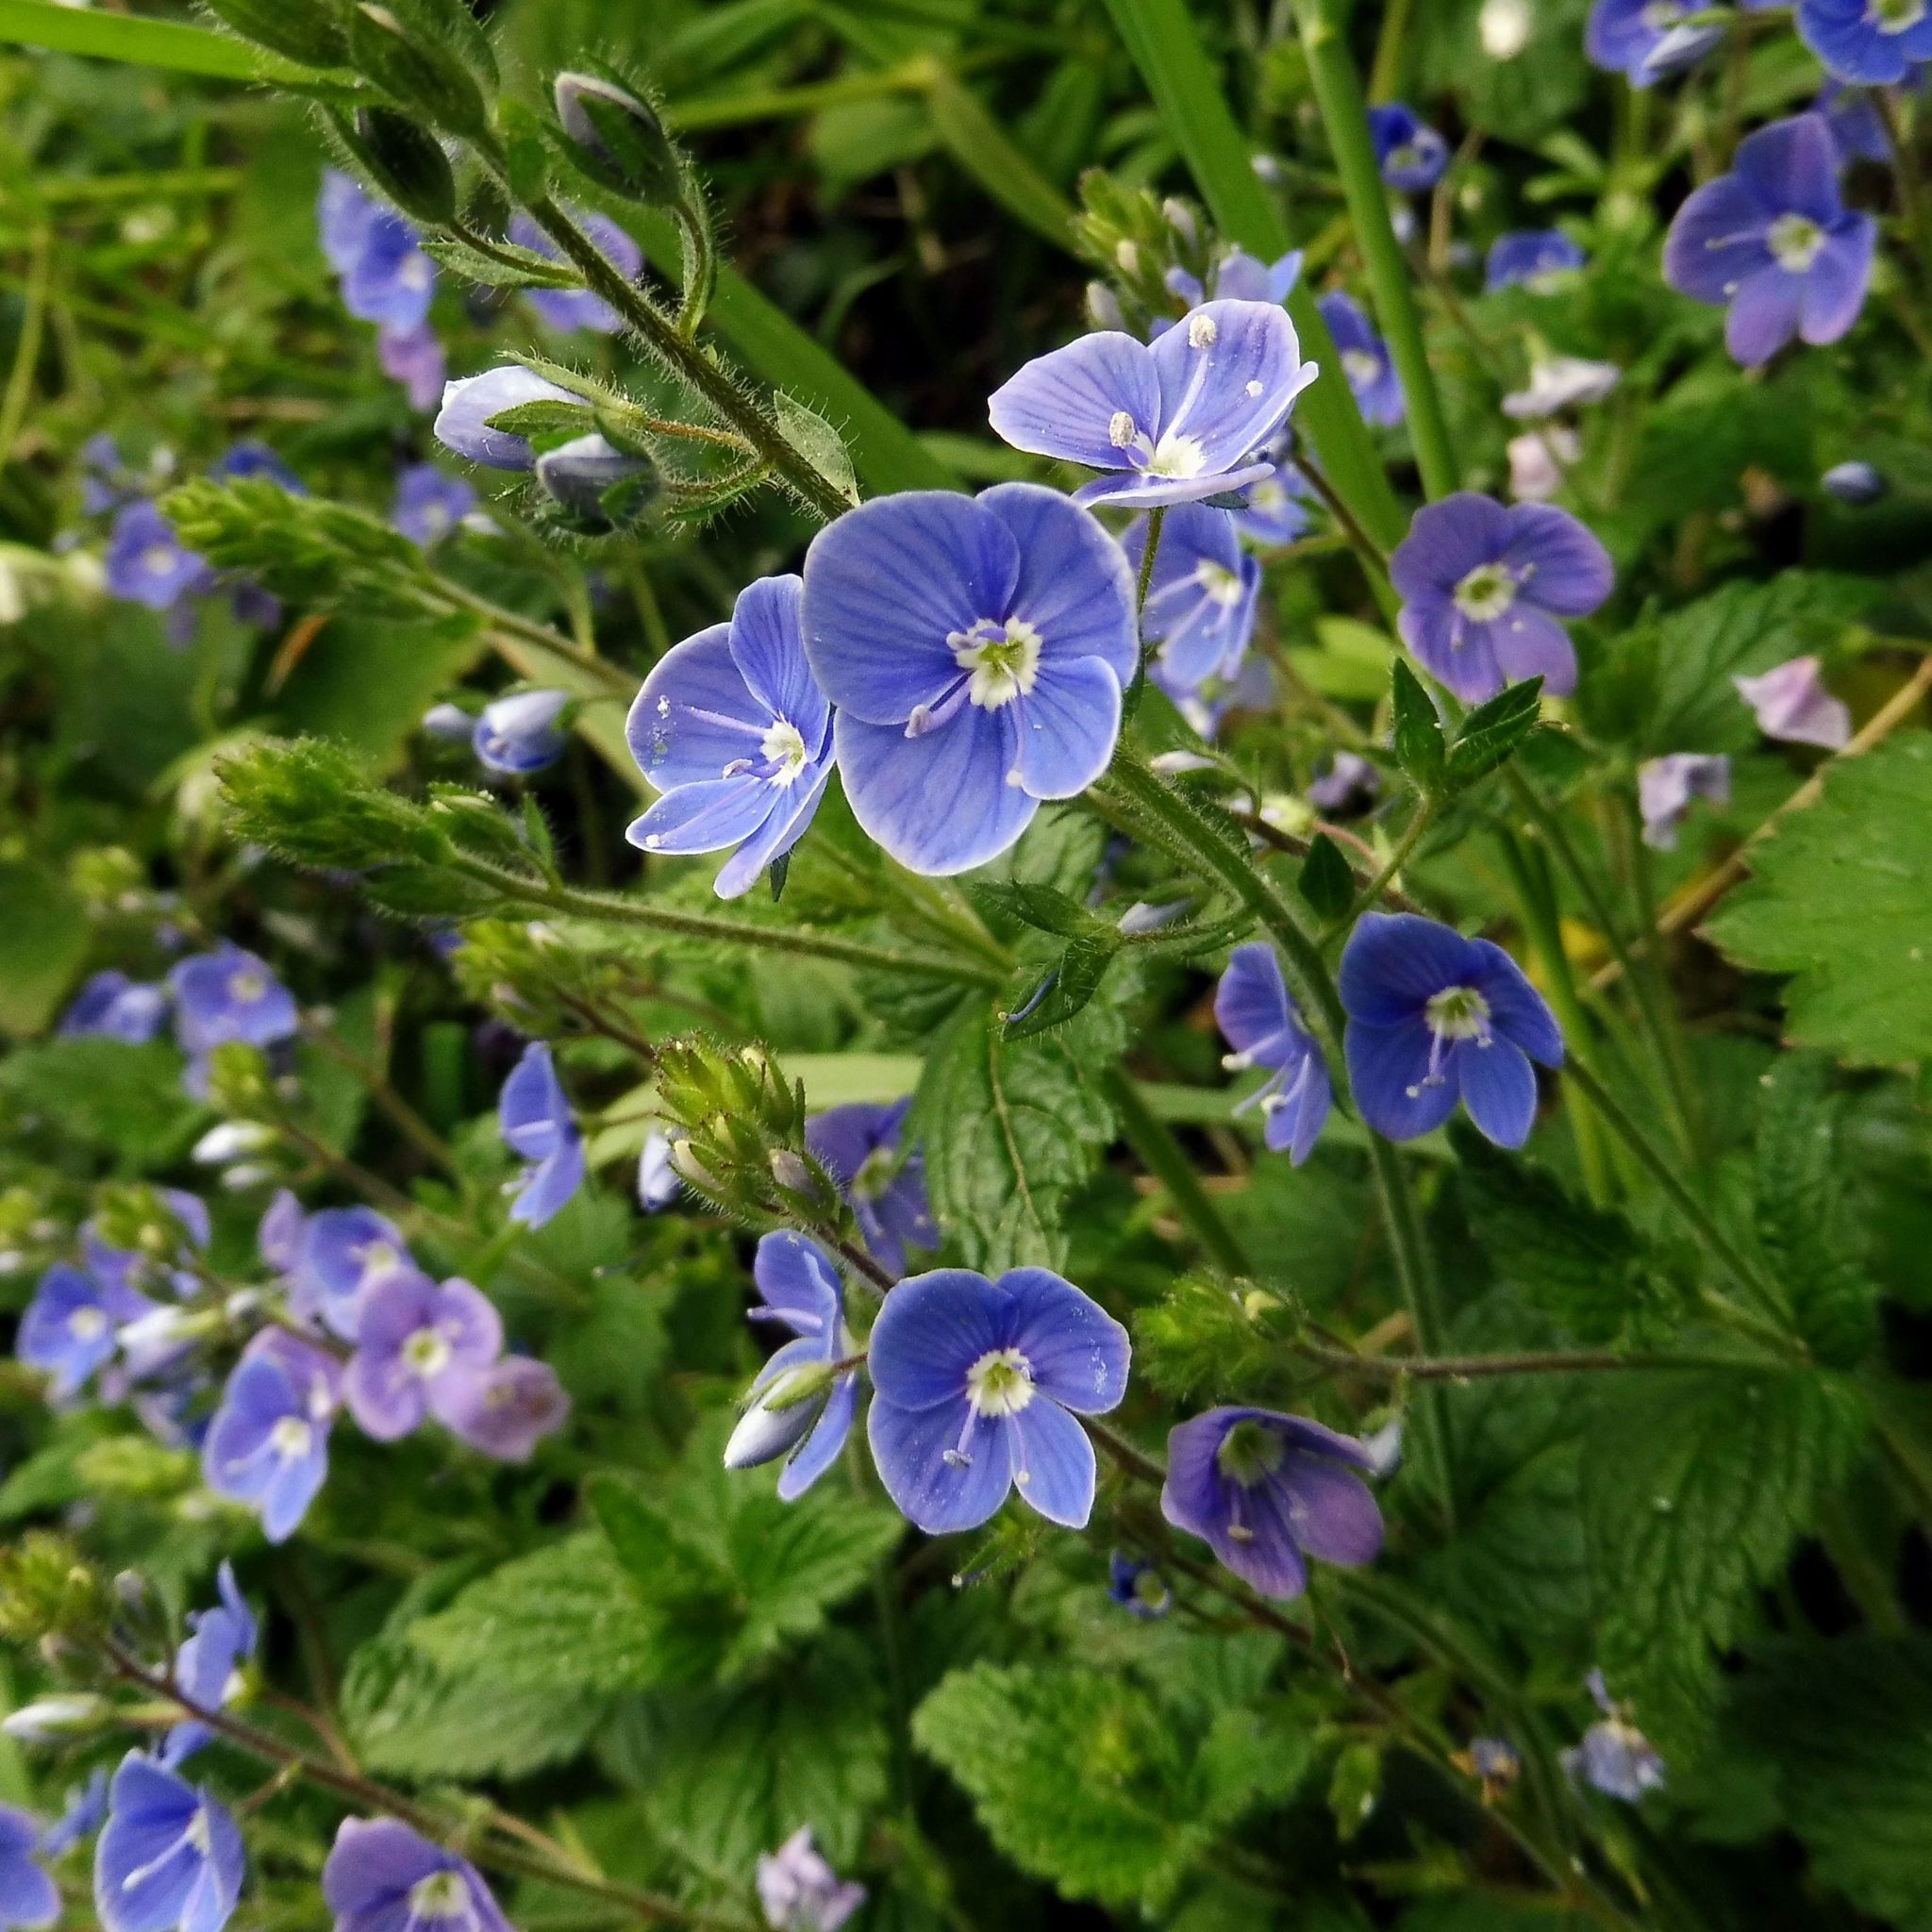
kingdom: Plantae
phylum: Tracheophyta
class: Magnoliopsida
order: Lamiales
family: Plantaginaceae
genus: Veronica
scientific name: Veronica chamaedrys
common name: Germander speedwell
